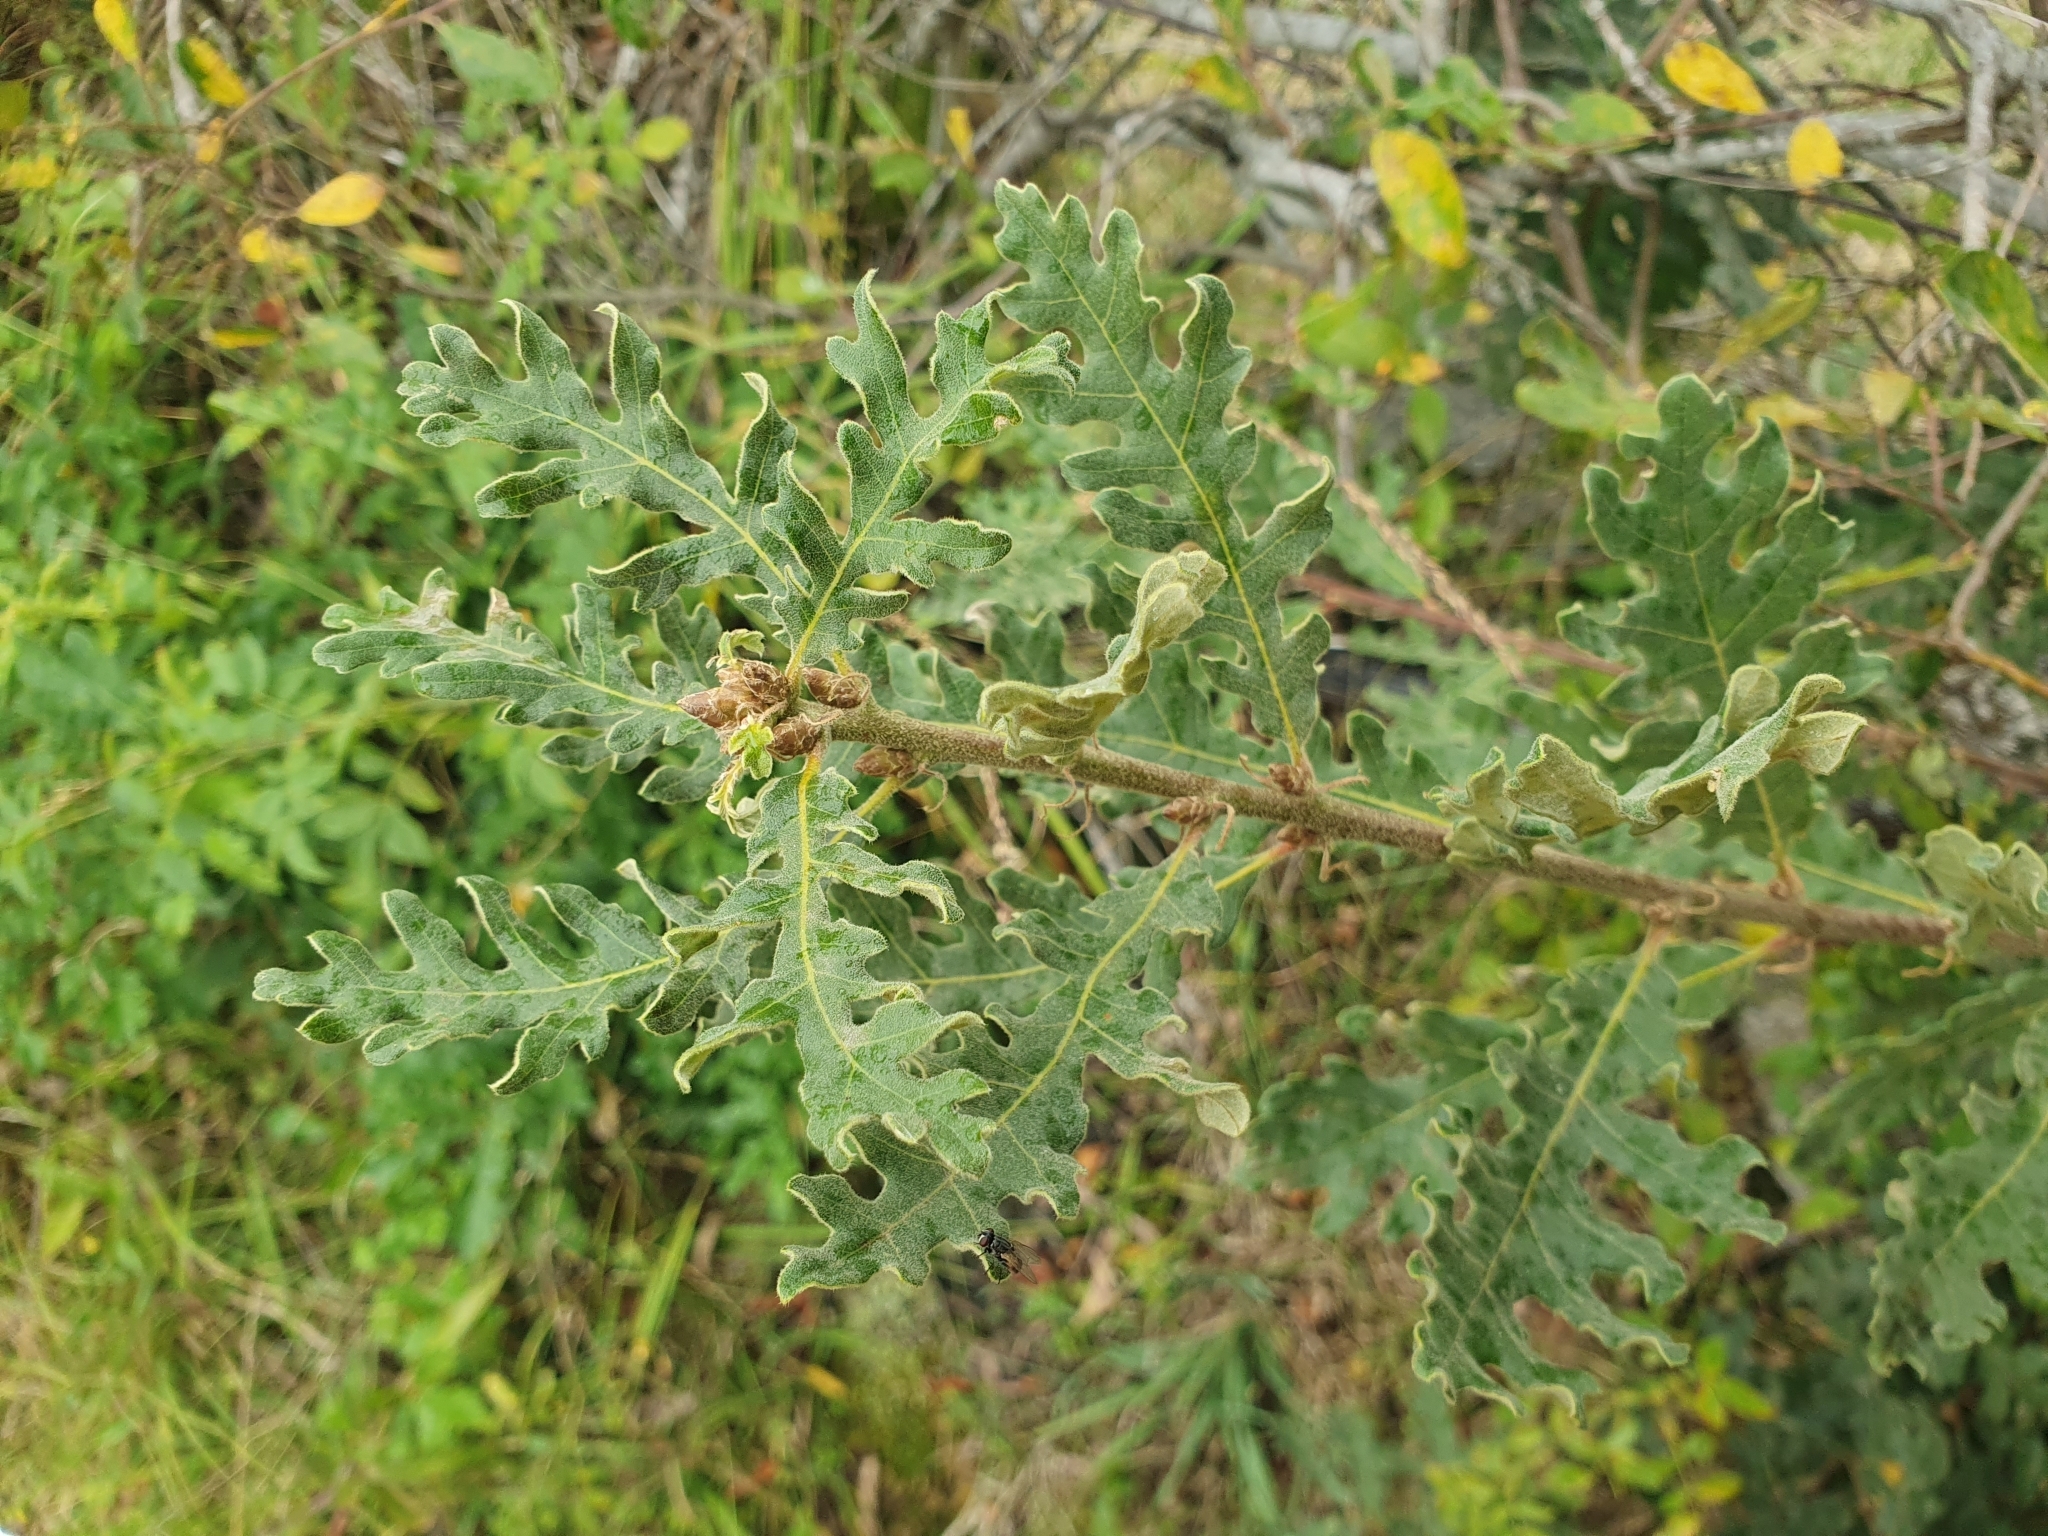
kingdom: Plantae
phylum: Tracheophyta
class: Magnoliopsida
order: Fagales
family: Fagaceae
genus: Quercus
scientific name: Quercus pyrenaica
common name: Pyrenean oak
